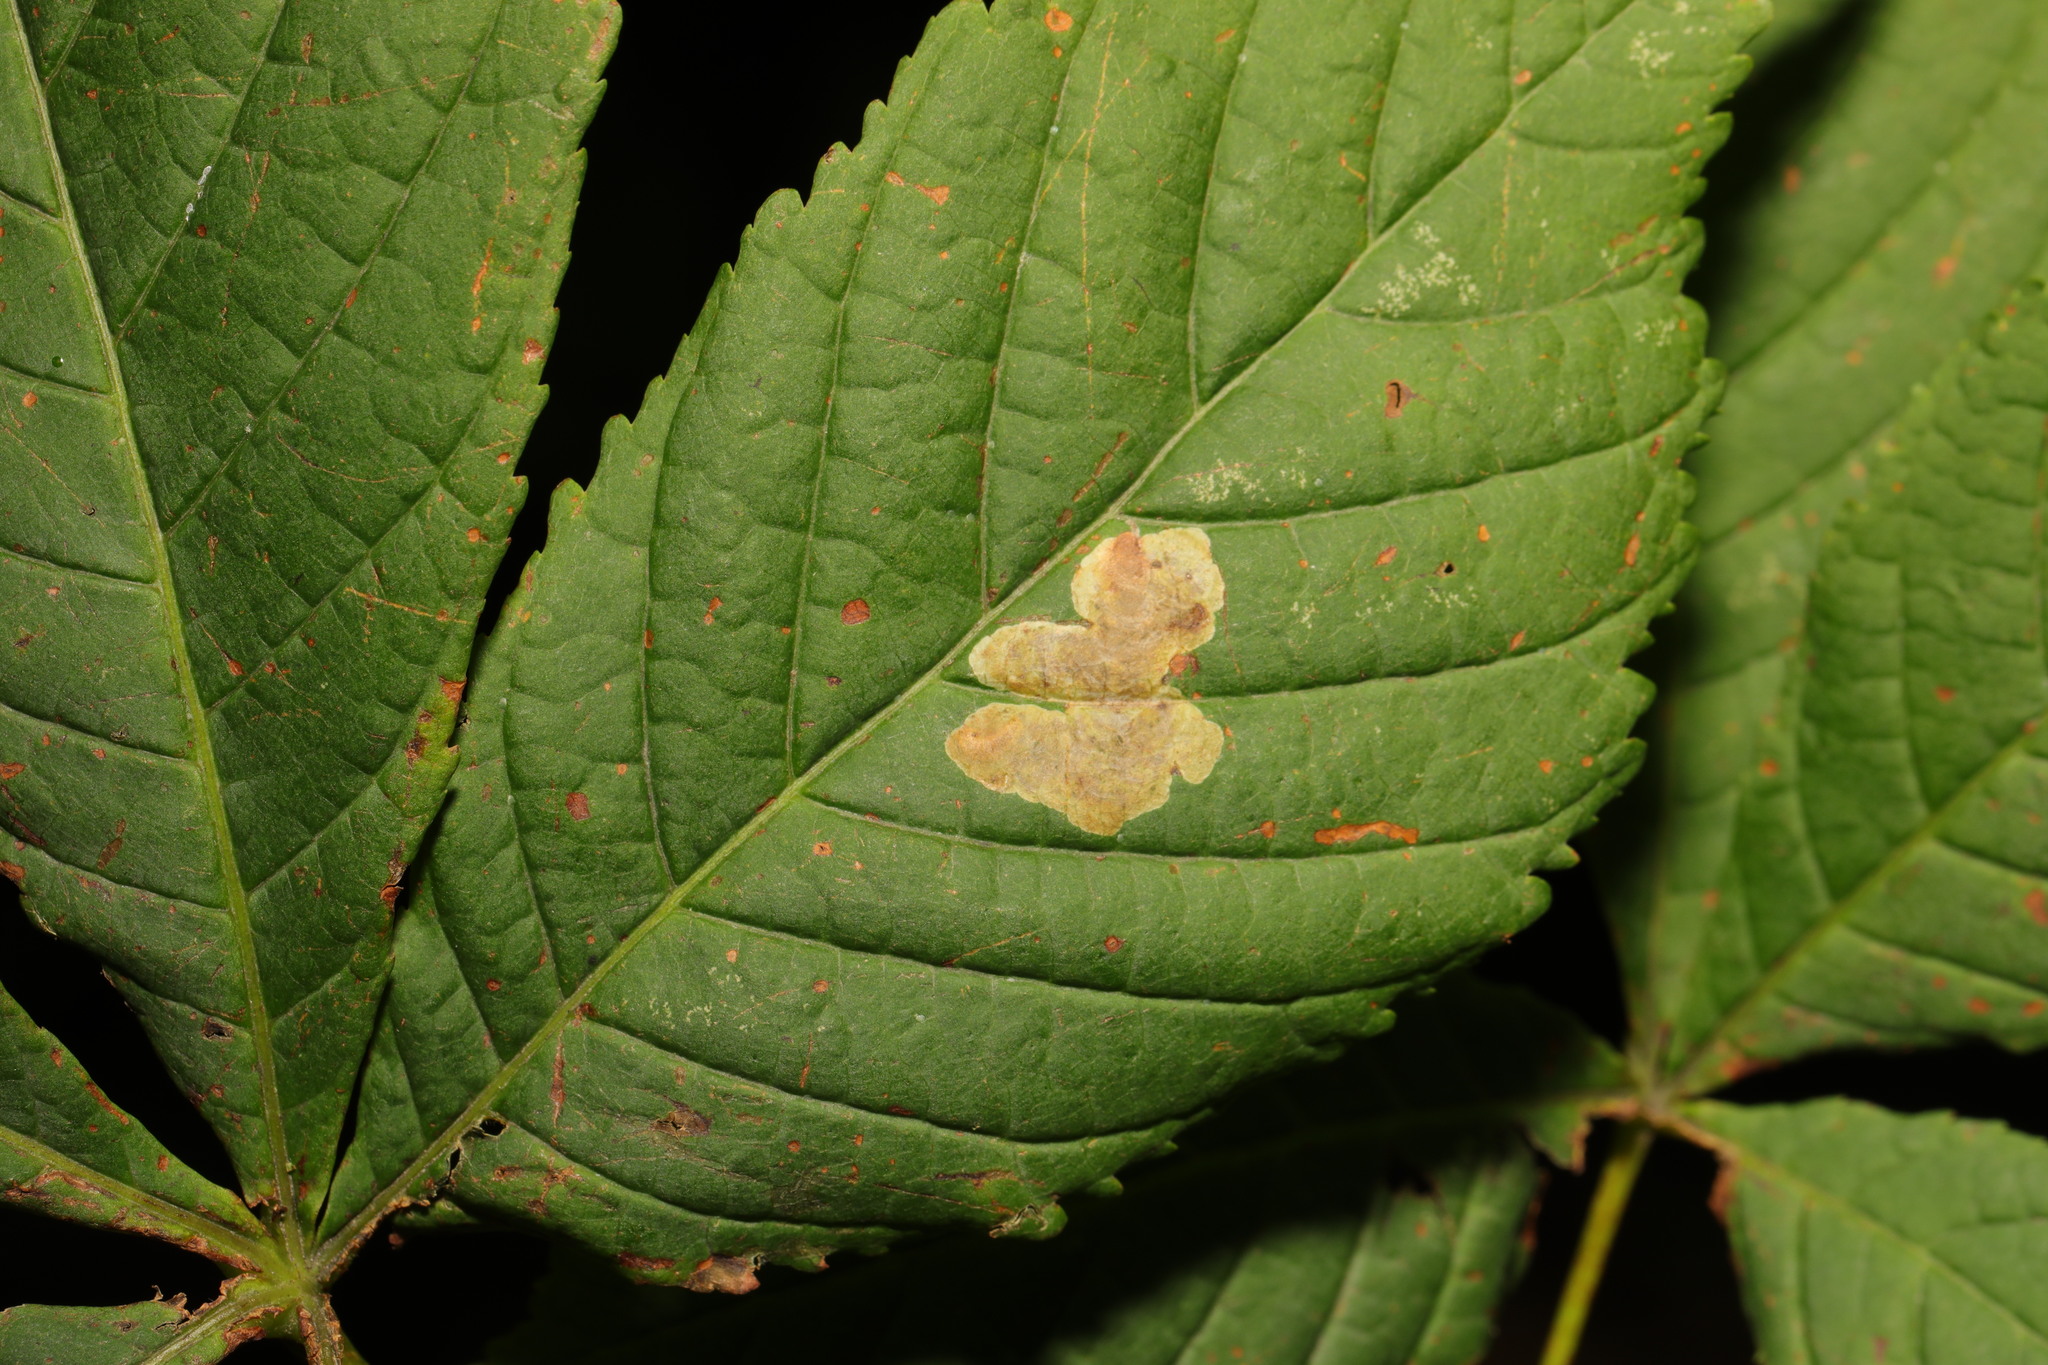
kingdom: Animalia
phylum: Arthropoda
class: Insecta
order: Lepidoptera
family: Gracillariidae
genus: Cameraria
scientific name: Cameraria ohridella
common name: Horse-chestnut leaf-miner
